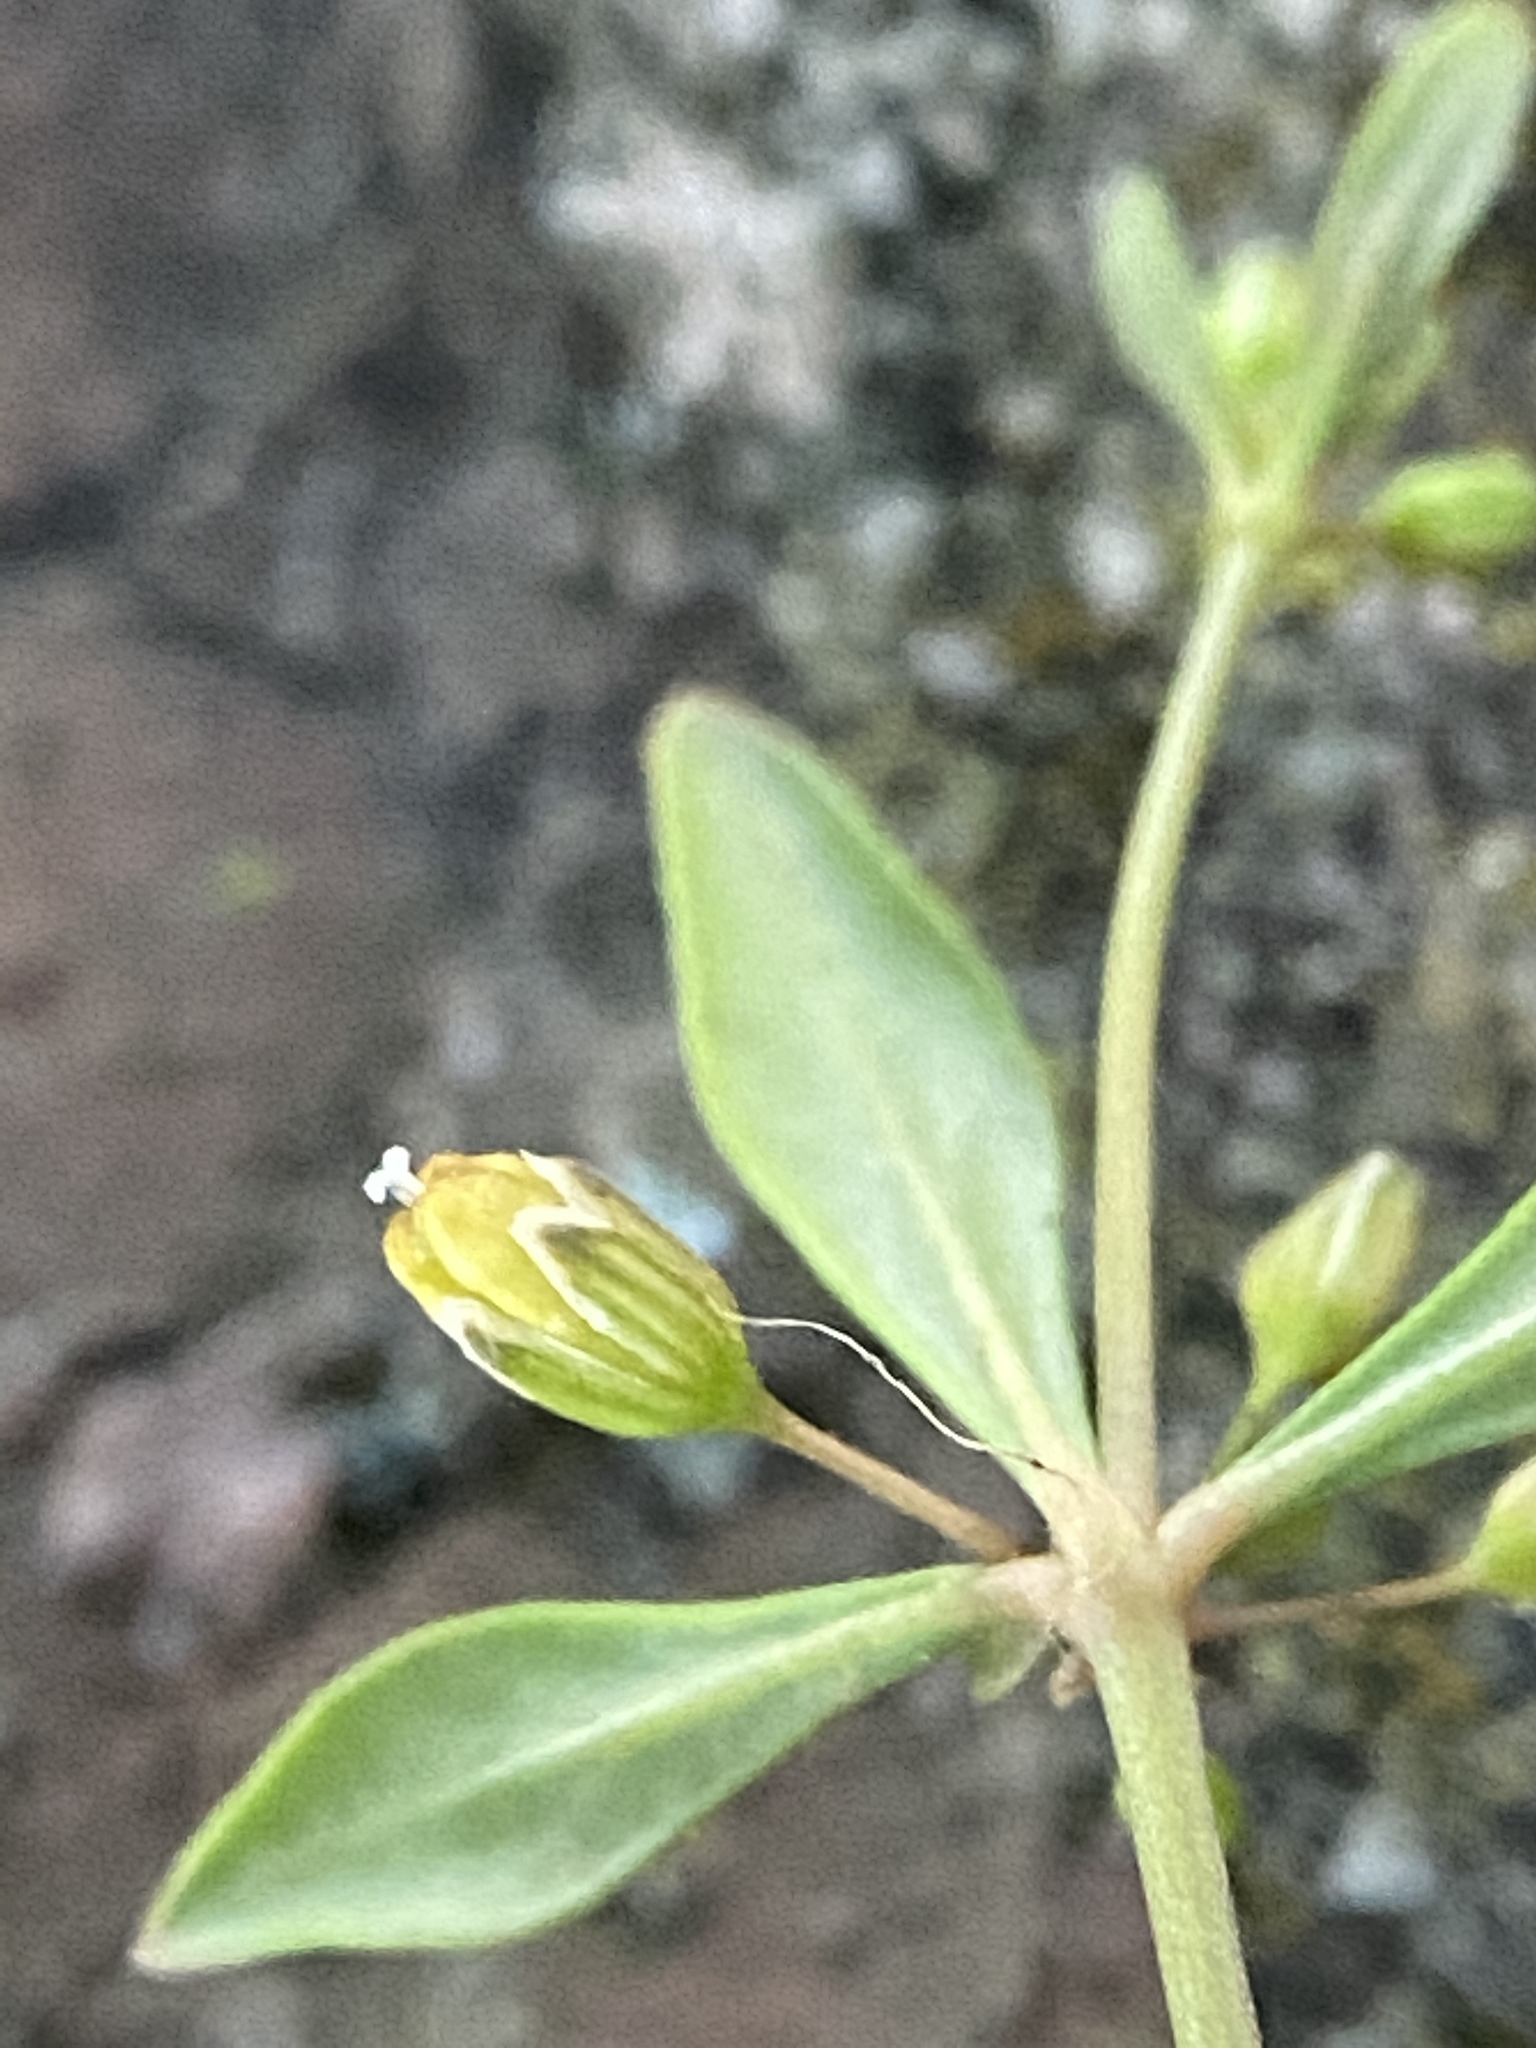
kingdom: Plantae
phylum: Tracheophyta
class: Magnoliopsida
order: Caryophyllales
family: Molluginaceae
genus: Mollugo
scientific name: Mollugo verticillata
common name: Green carpetweed
